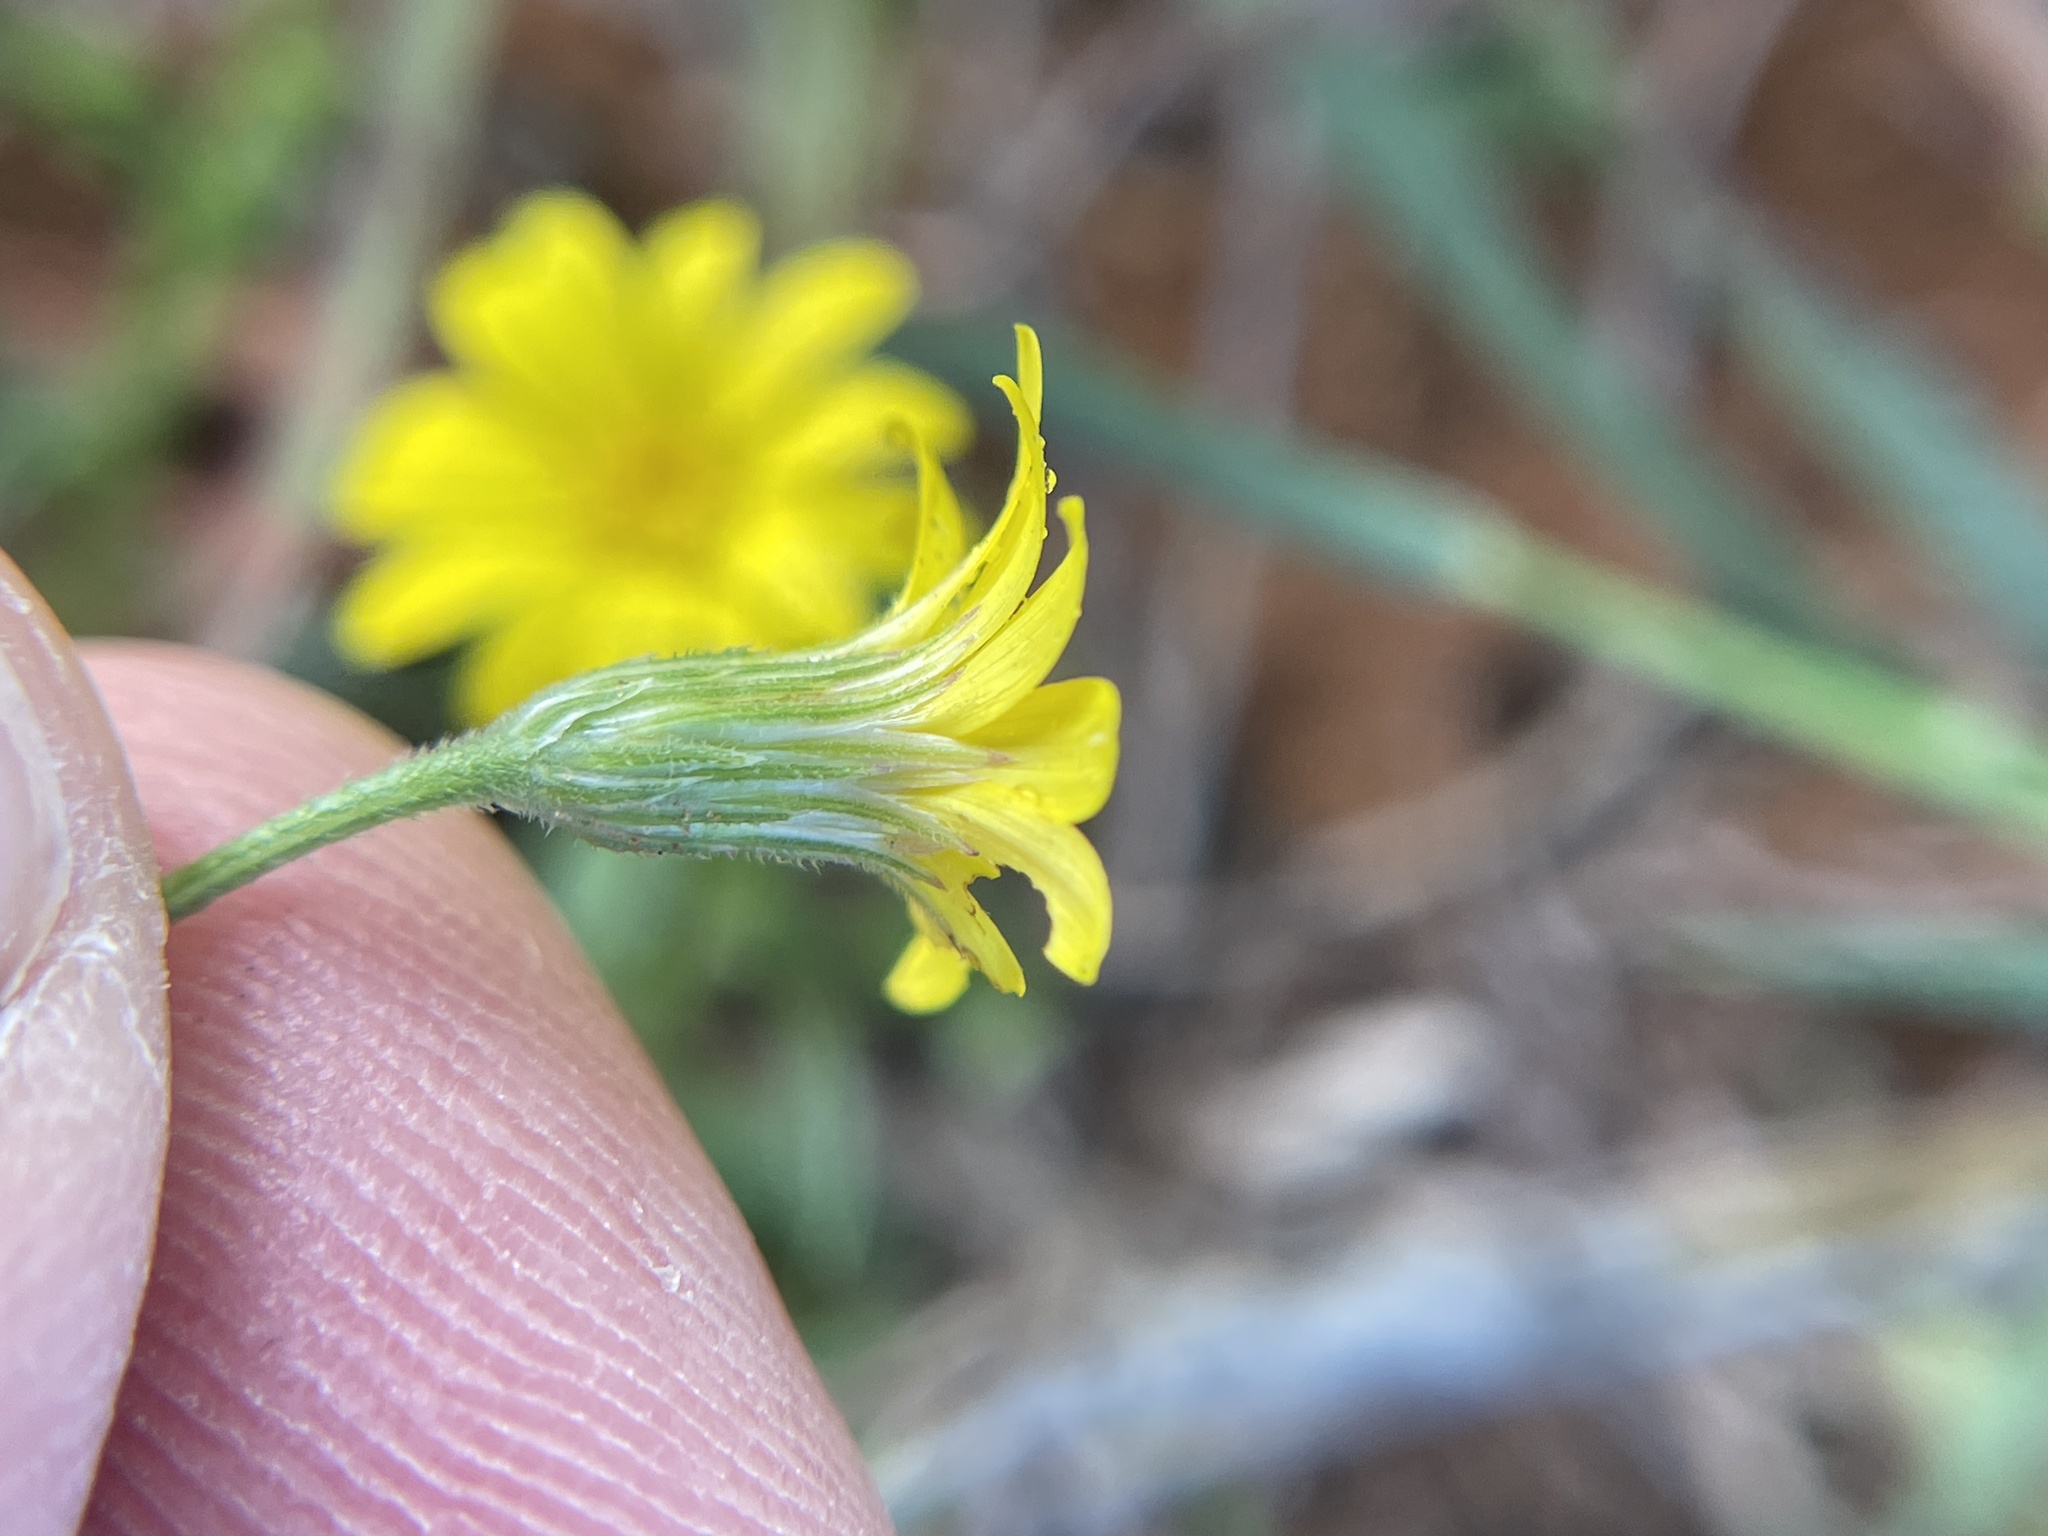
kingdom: Plantae
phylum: Tracheophyta
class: Magnoliopsida
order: Asterales
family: Asteraceae
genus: Croptilon
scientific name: Croptilon rigidifolium
